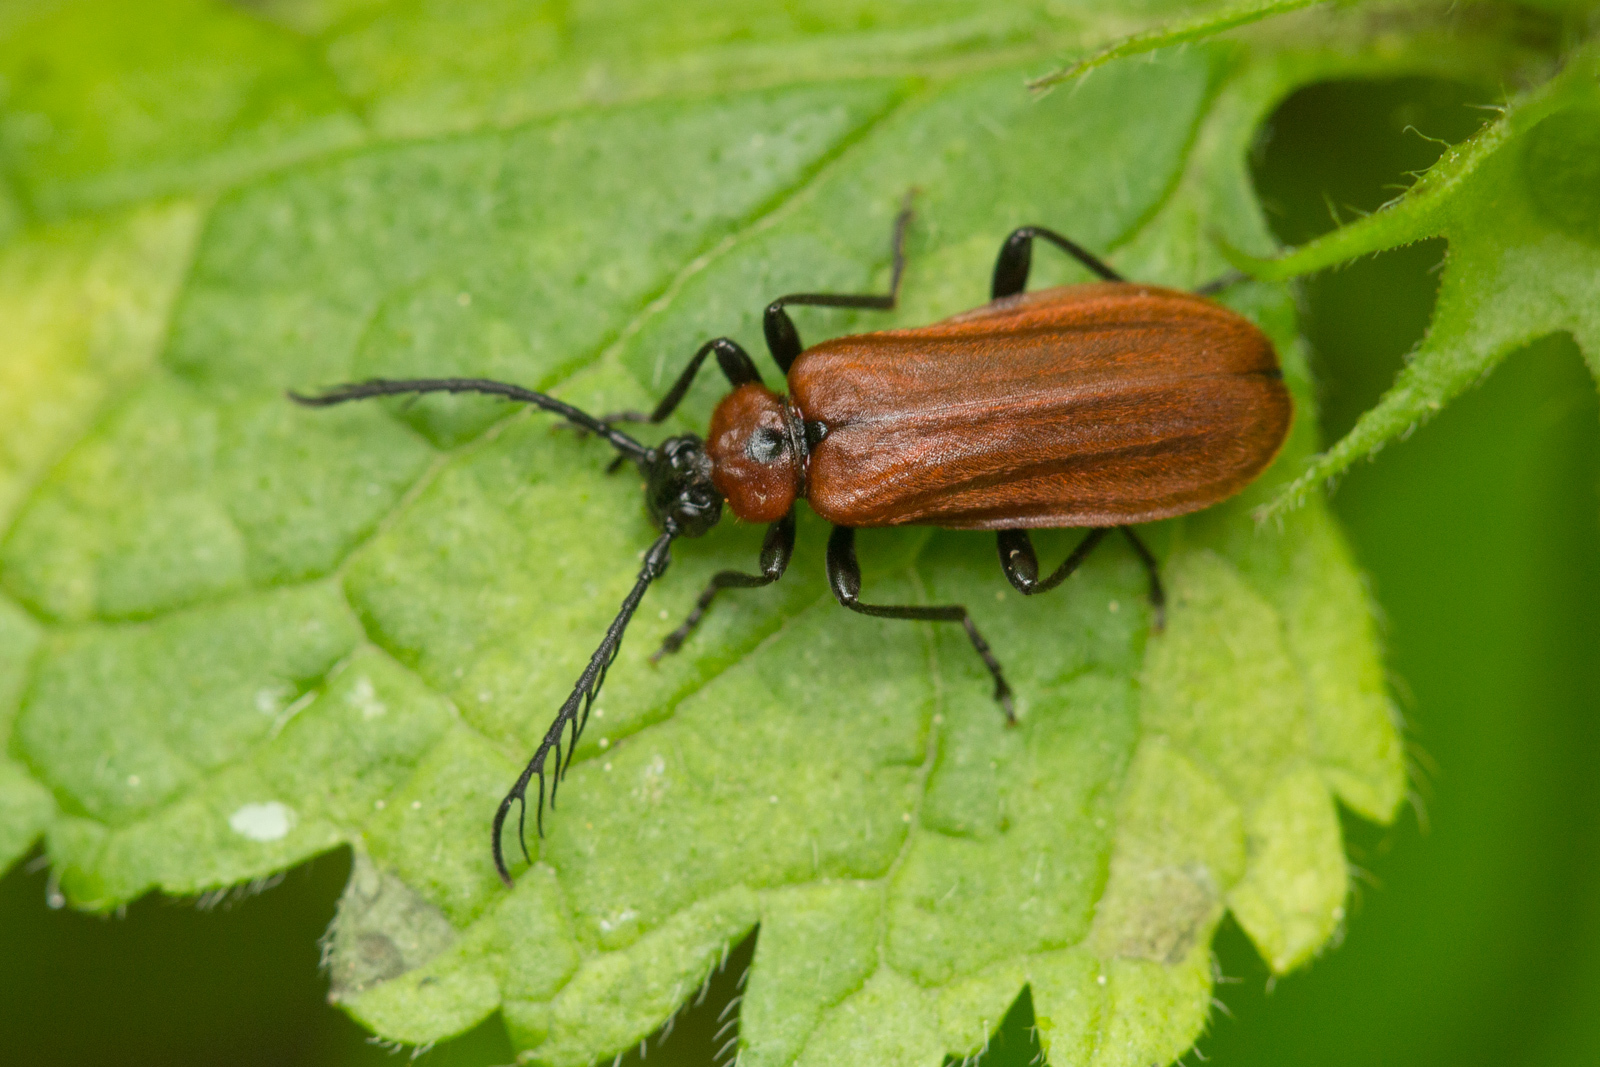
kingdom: Animalia
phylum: Arthropoda
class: Insecta
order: Coleoptera
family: Pyrochroidae
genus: Schizotus
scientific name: Schizotus pectinicornis
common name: Scarce cardinal beetle
